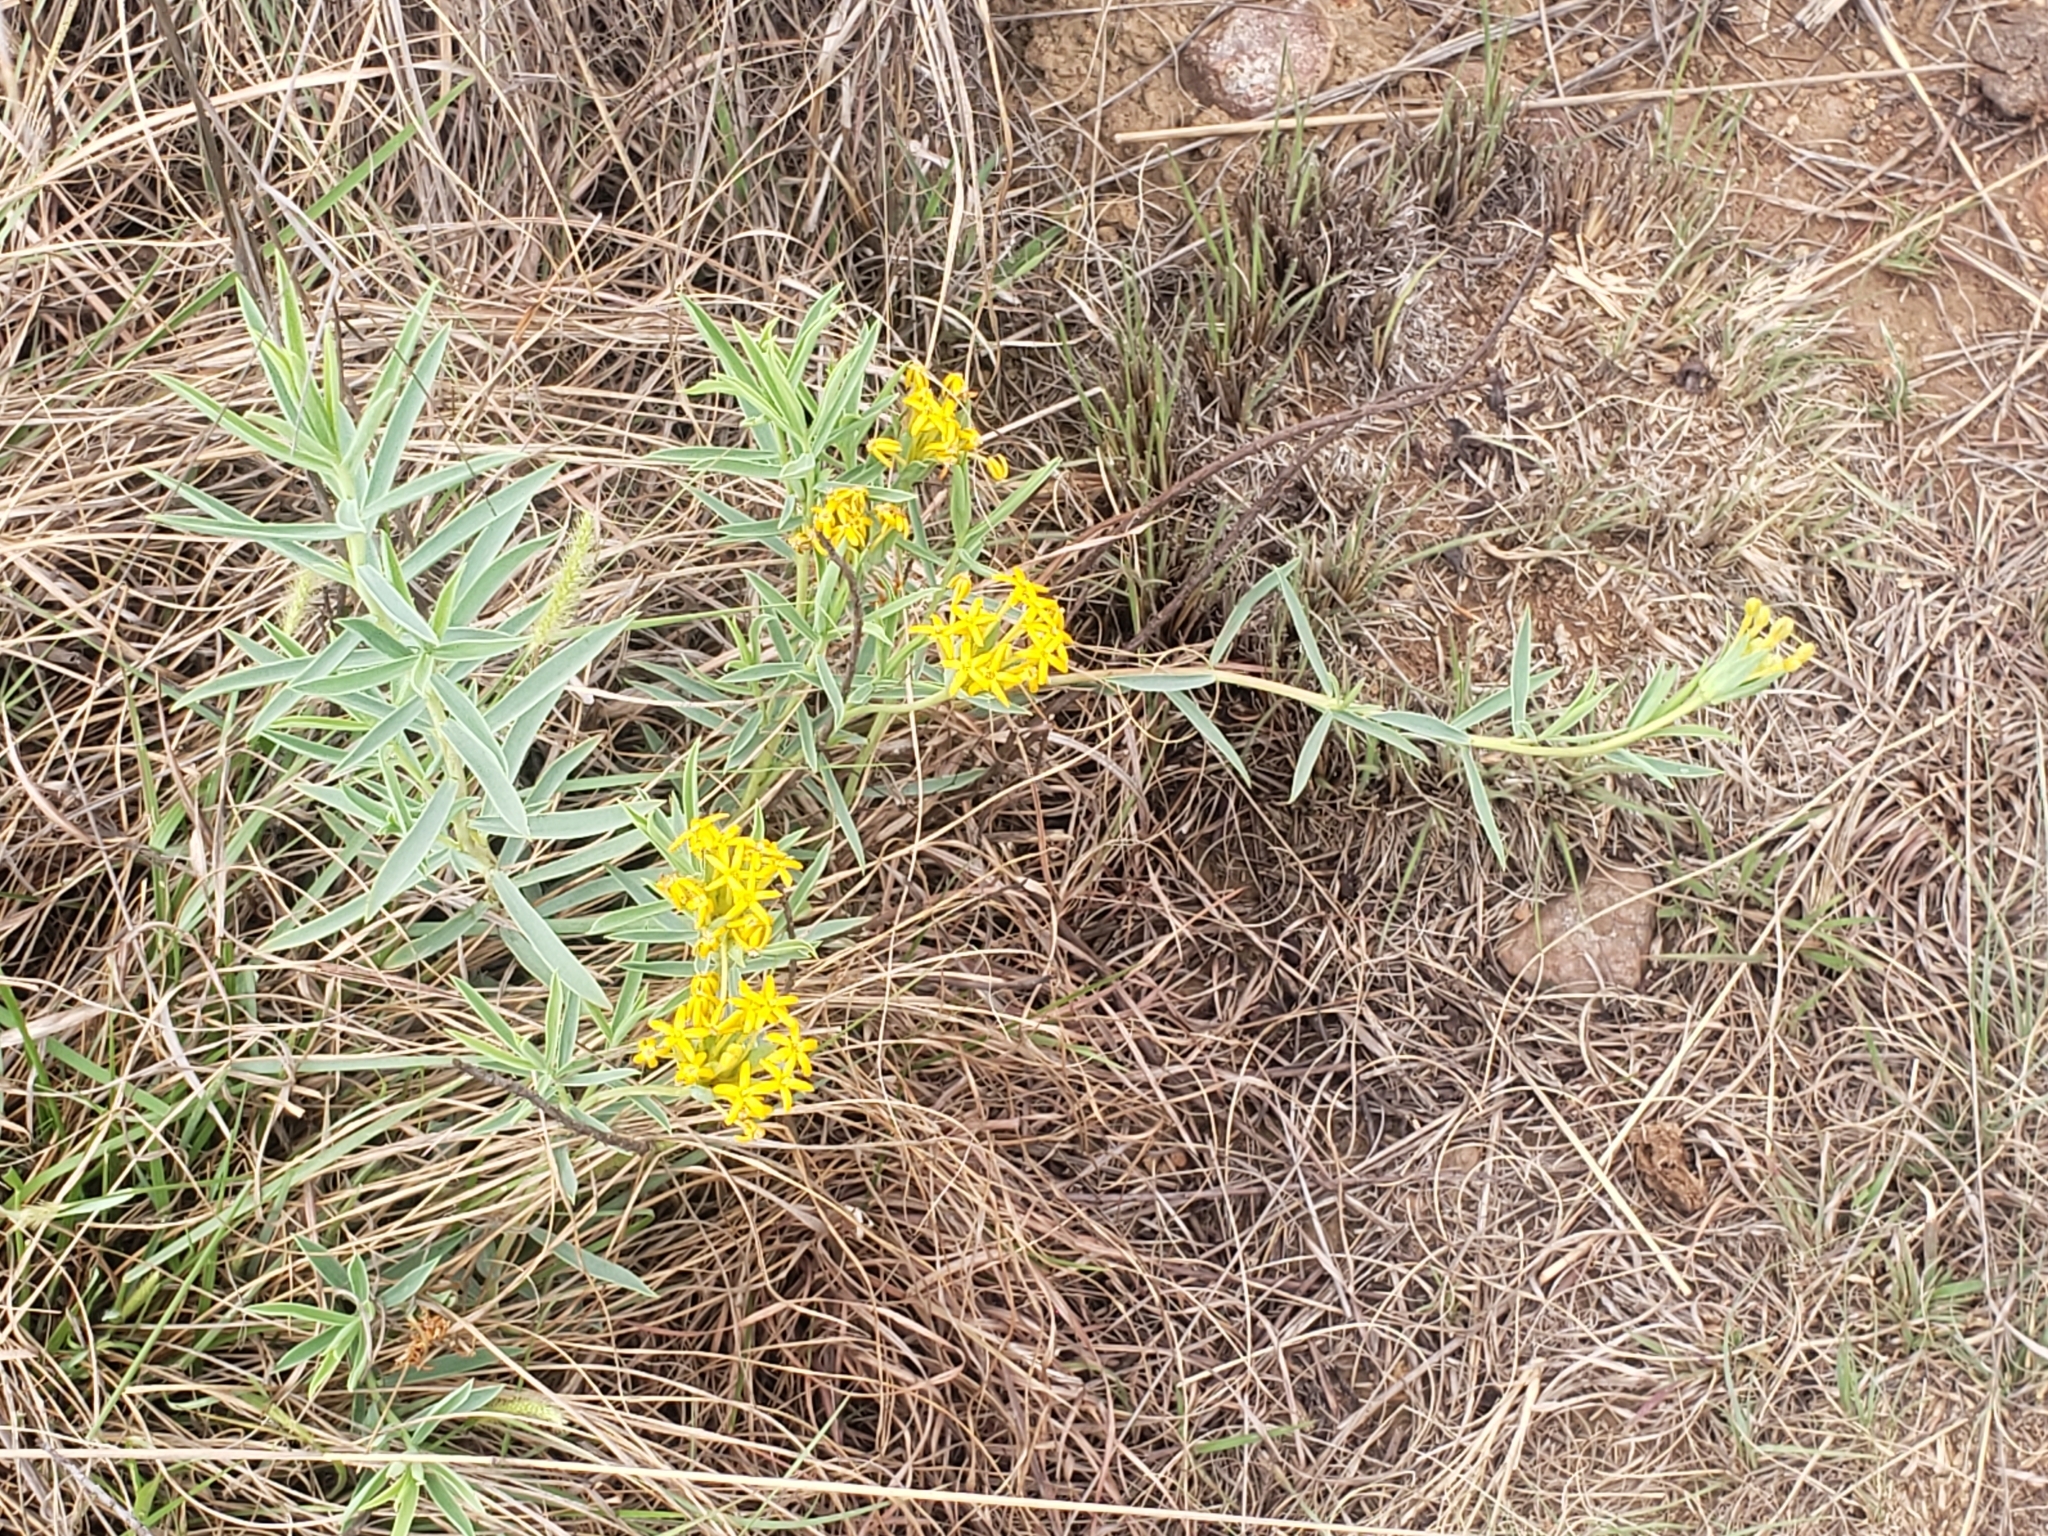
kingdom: Plantae
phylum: Tracheophyta
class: Magnoliopsida
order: Malvales
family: Thymelaeaceae
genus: Gnidia
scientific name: Gnidia capitata
